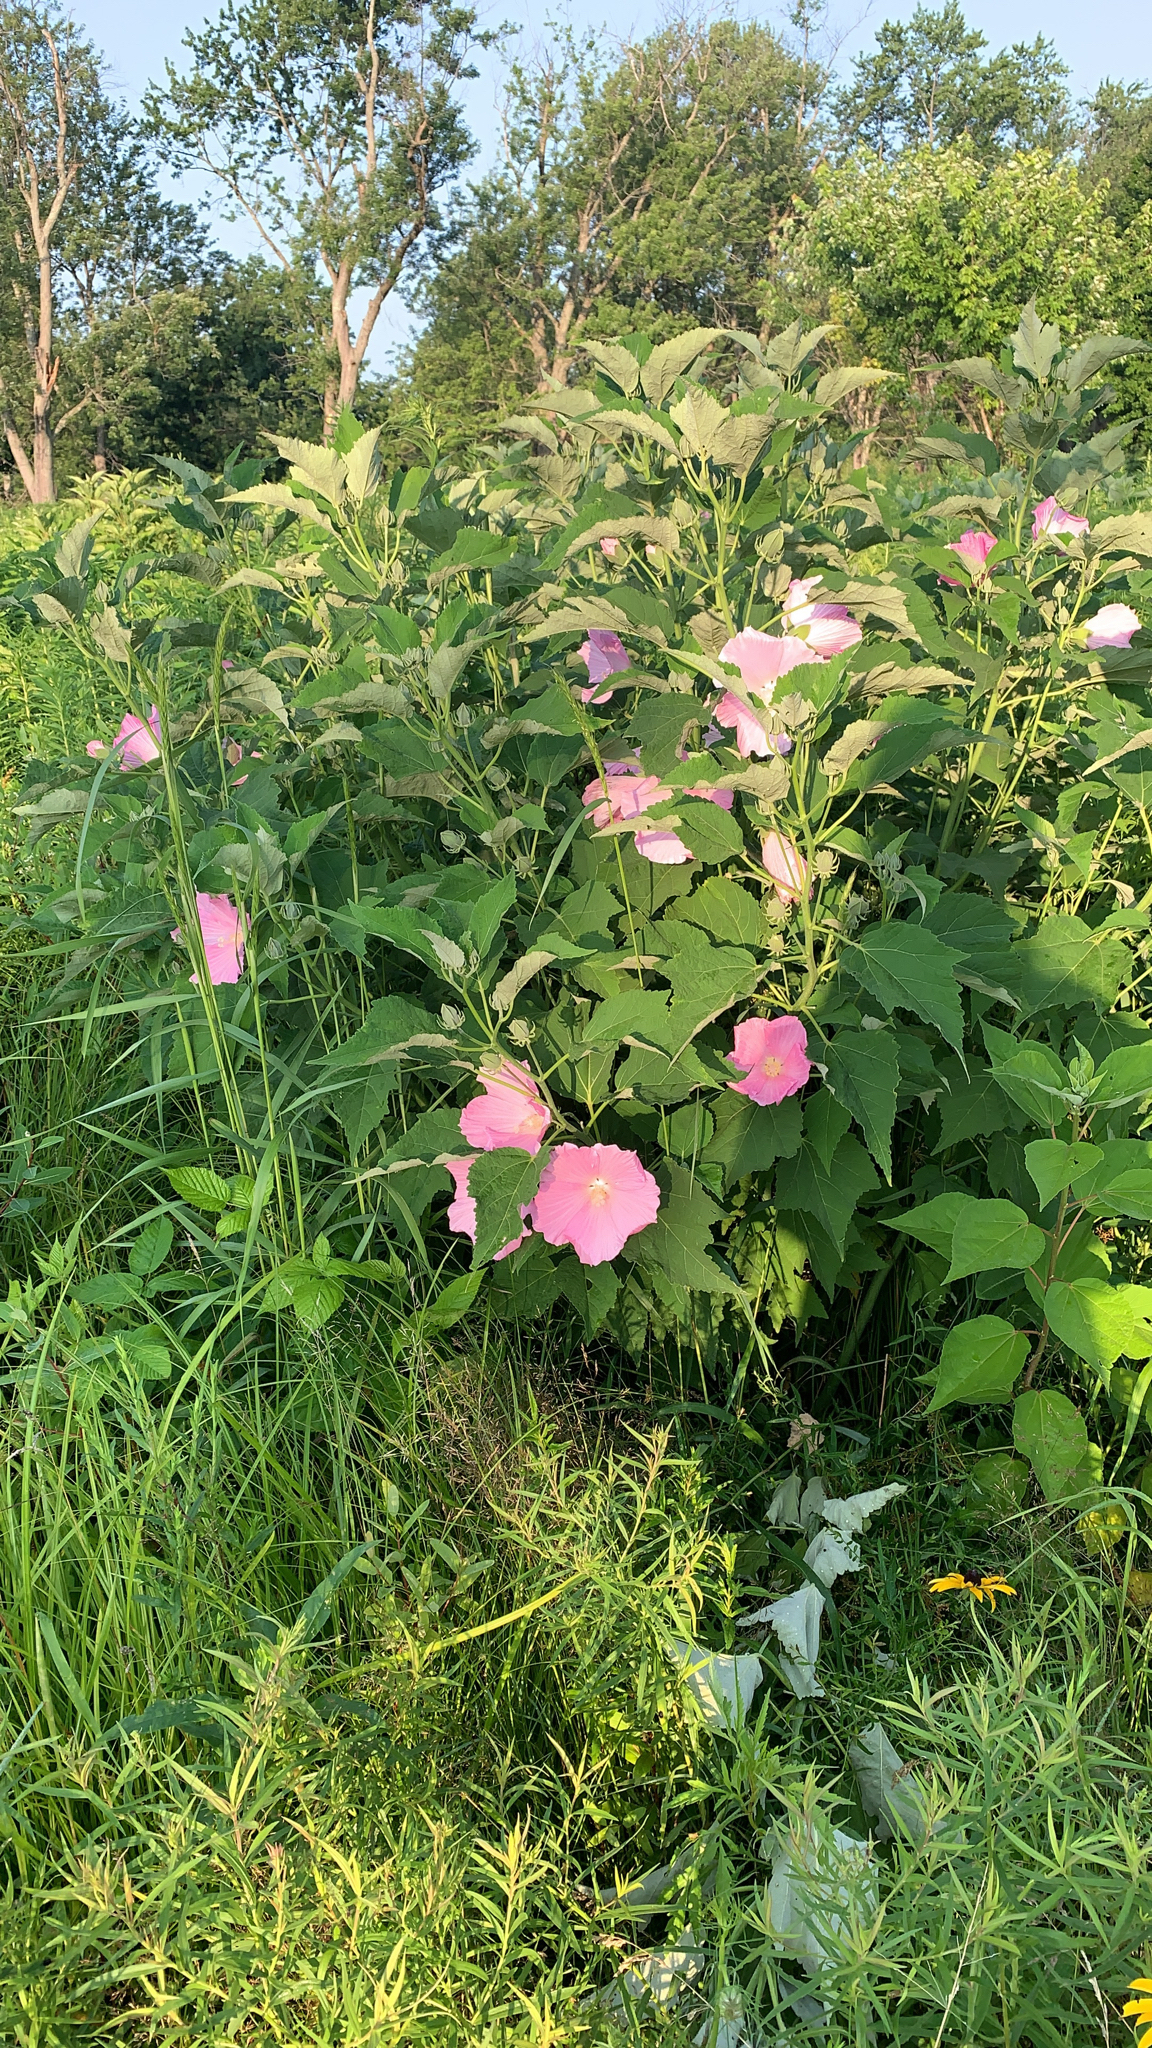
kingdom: Plantae
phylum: Tracheophyta
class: Magnoliopsida
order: Malvales
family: Malvaceae
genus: Hibiscus
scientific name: Hibiscus moscheutos
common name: Common rose-mallow
